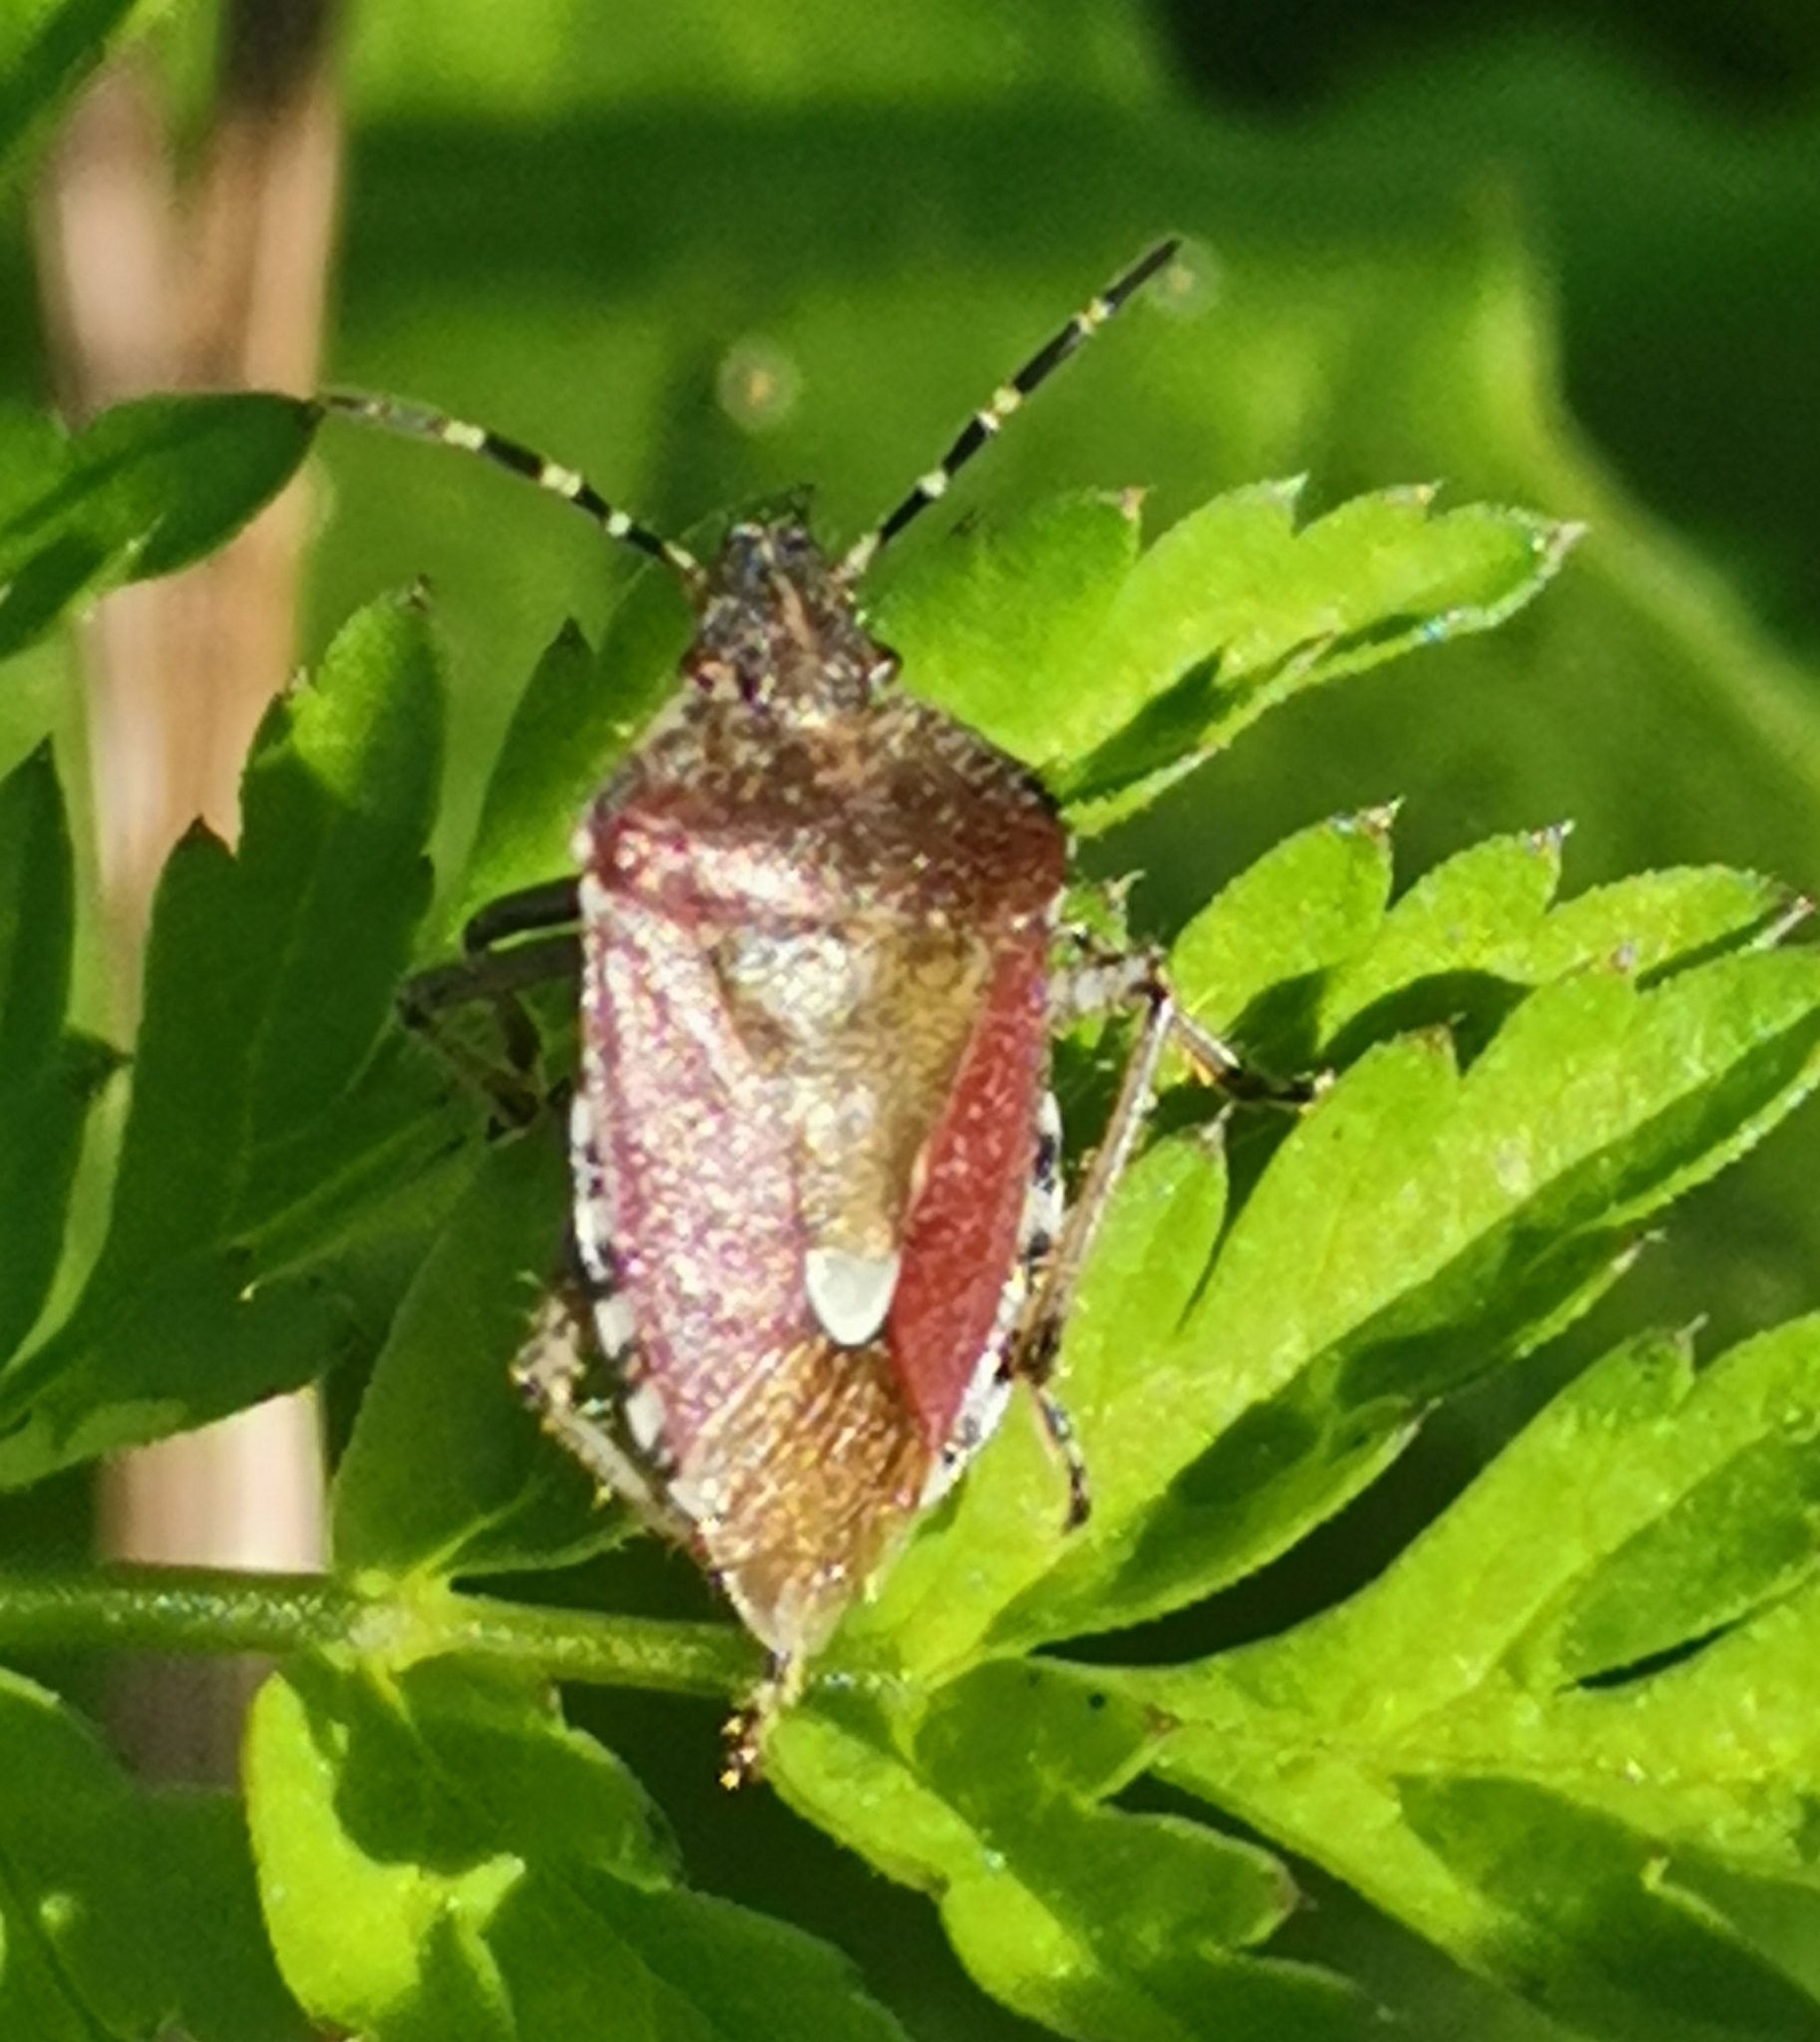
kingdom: Animalia
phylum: Arthropoda
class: Insecta
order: Hemiptera
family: Pentatomidae
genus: Dolycoris
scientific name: Dolycoris baccarum
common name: Sloe bug
